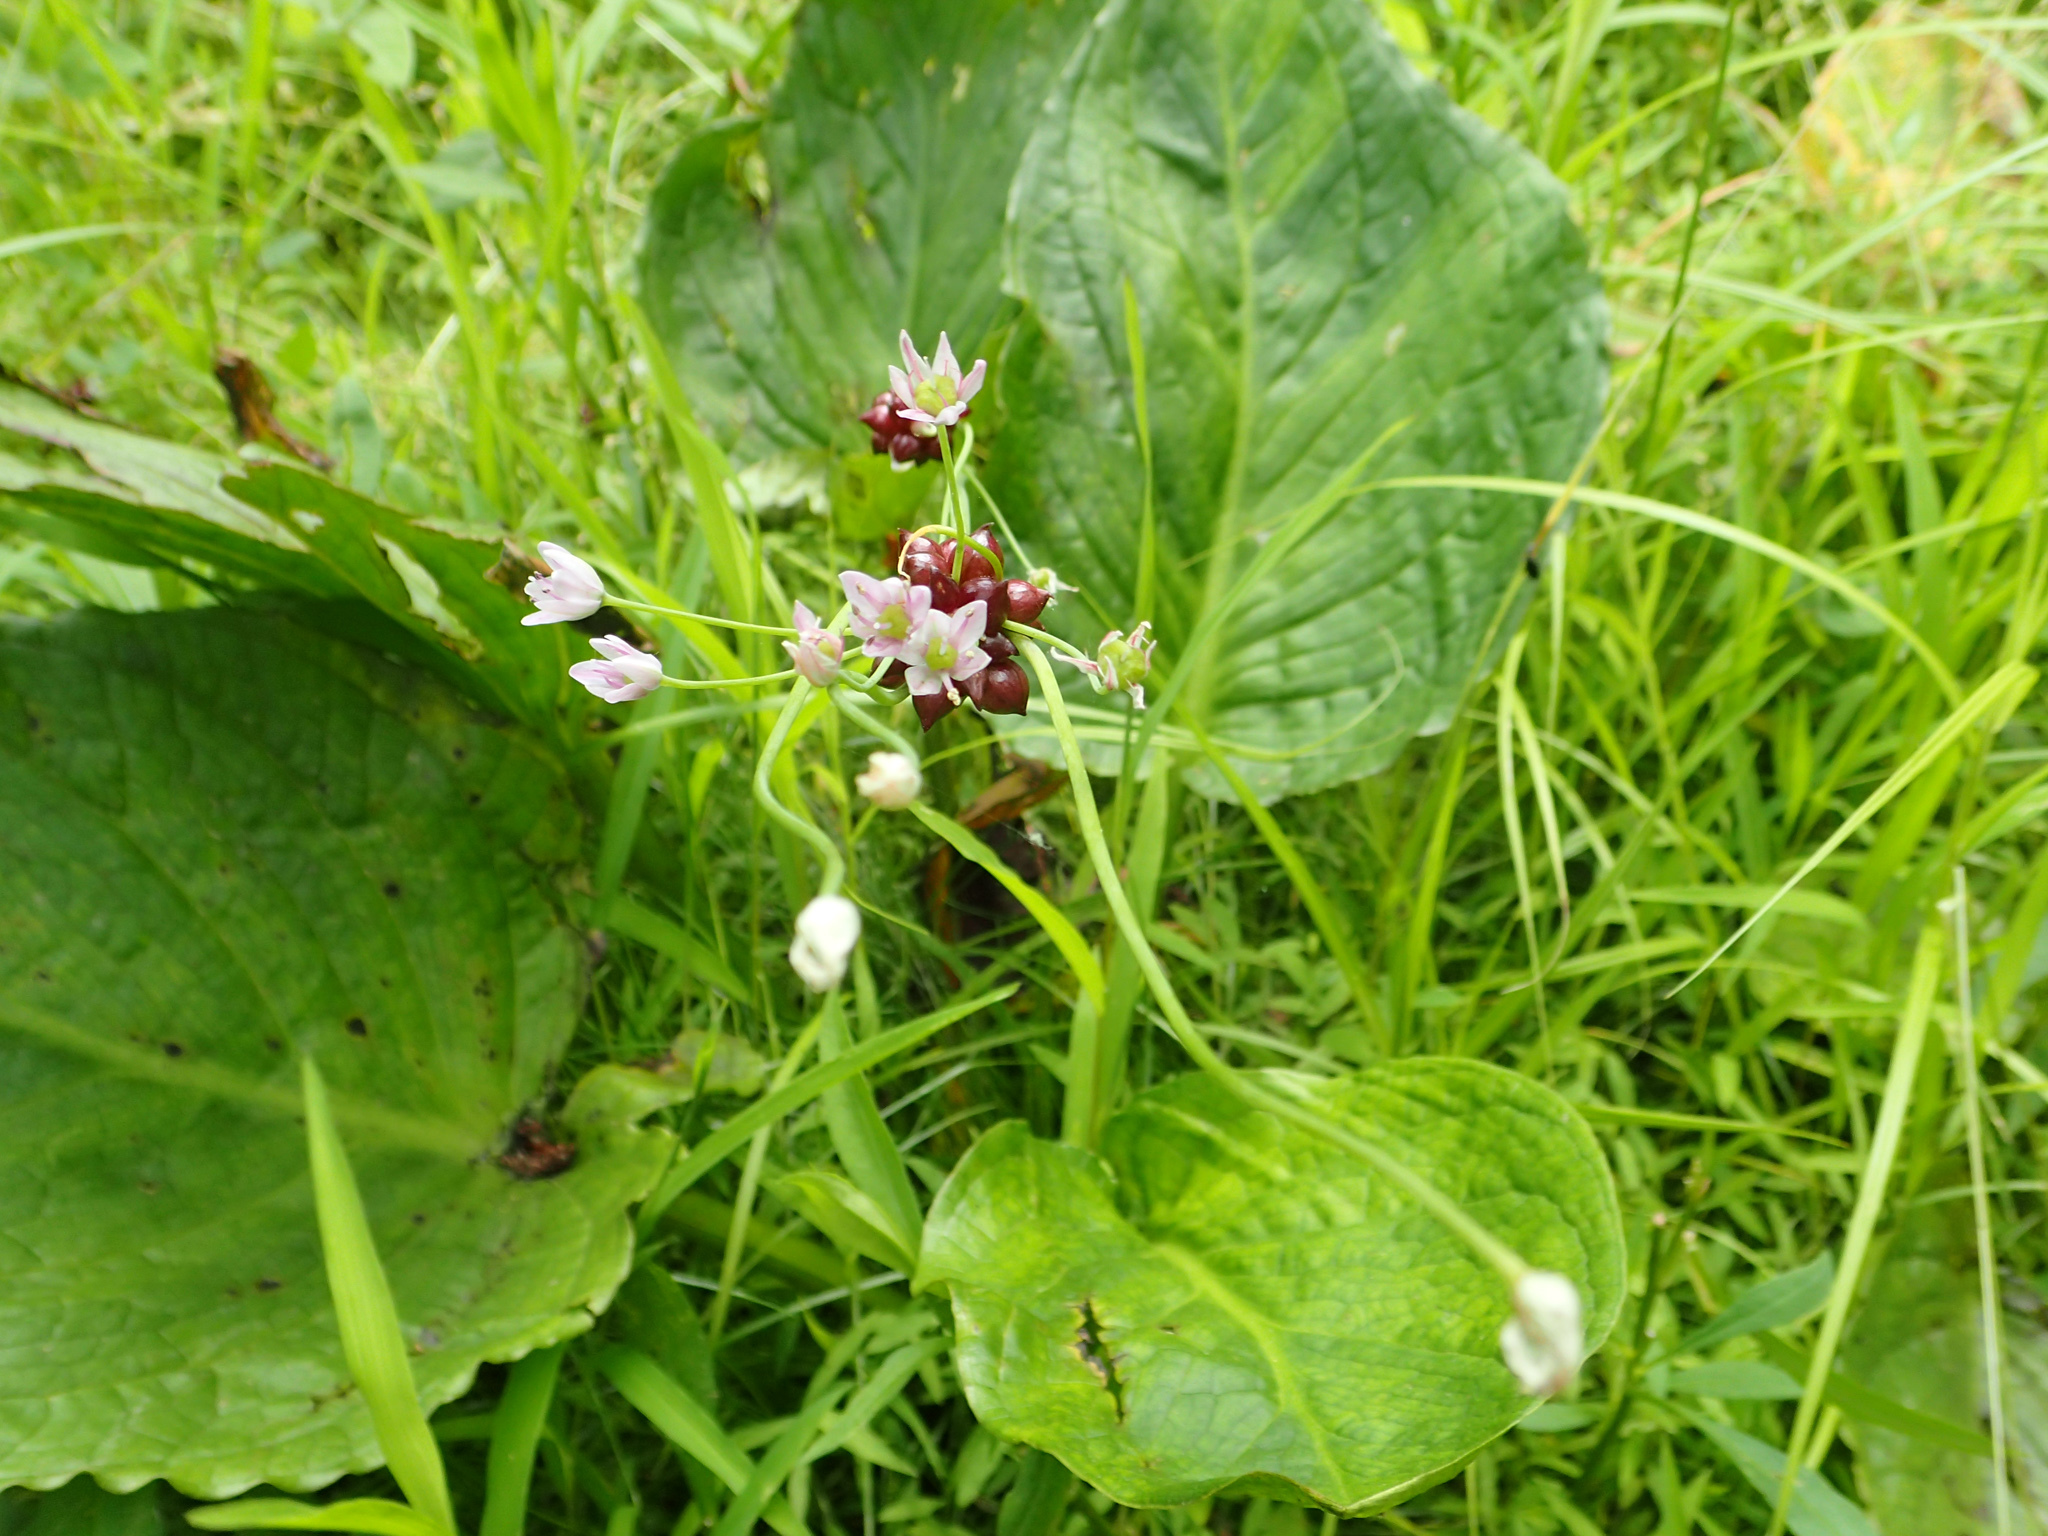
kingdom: Plantae
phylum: Tracheophyta
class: Liliopsida
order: Asparagales
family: Amaryllidaceae
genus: Allium
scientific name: Allium canadense
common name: Meadow garlic
